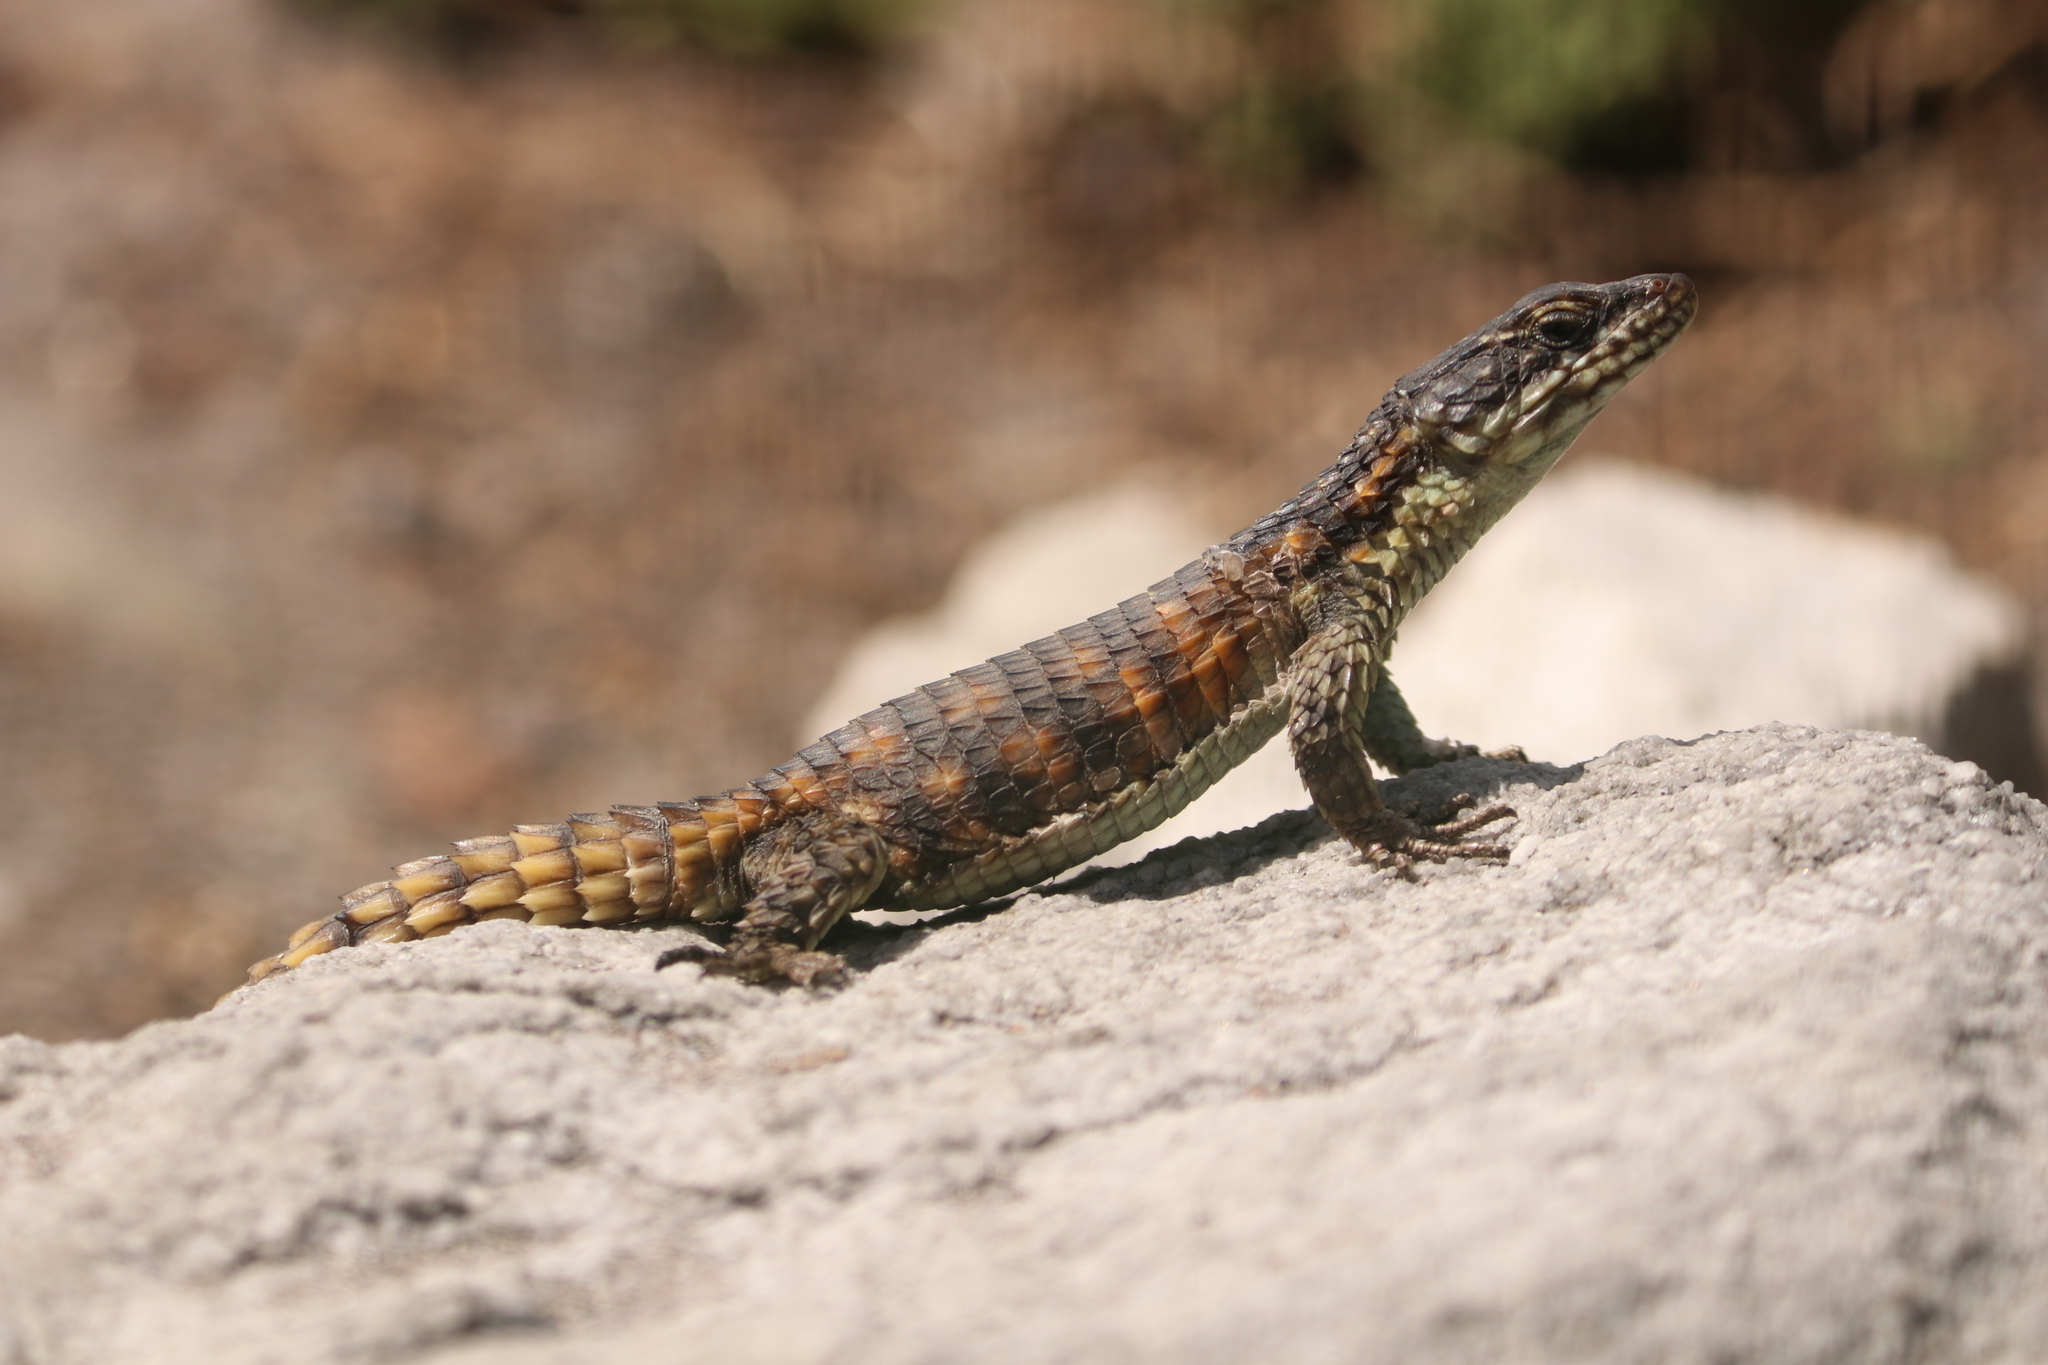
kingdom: Animalia
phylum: Chordata
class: Squamata
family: Cordylidae
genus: Cordylus
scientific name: Cordylus cordylus
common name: Cape girdled lizard
